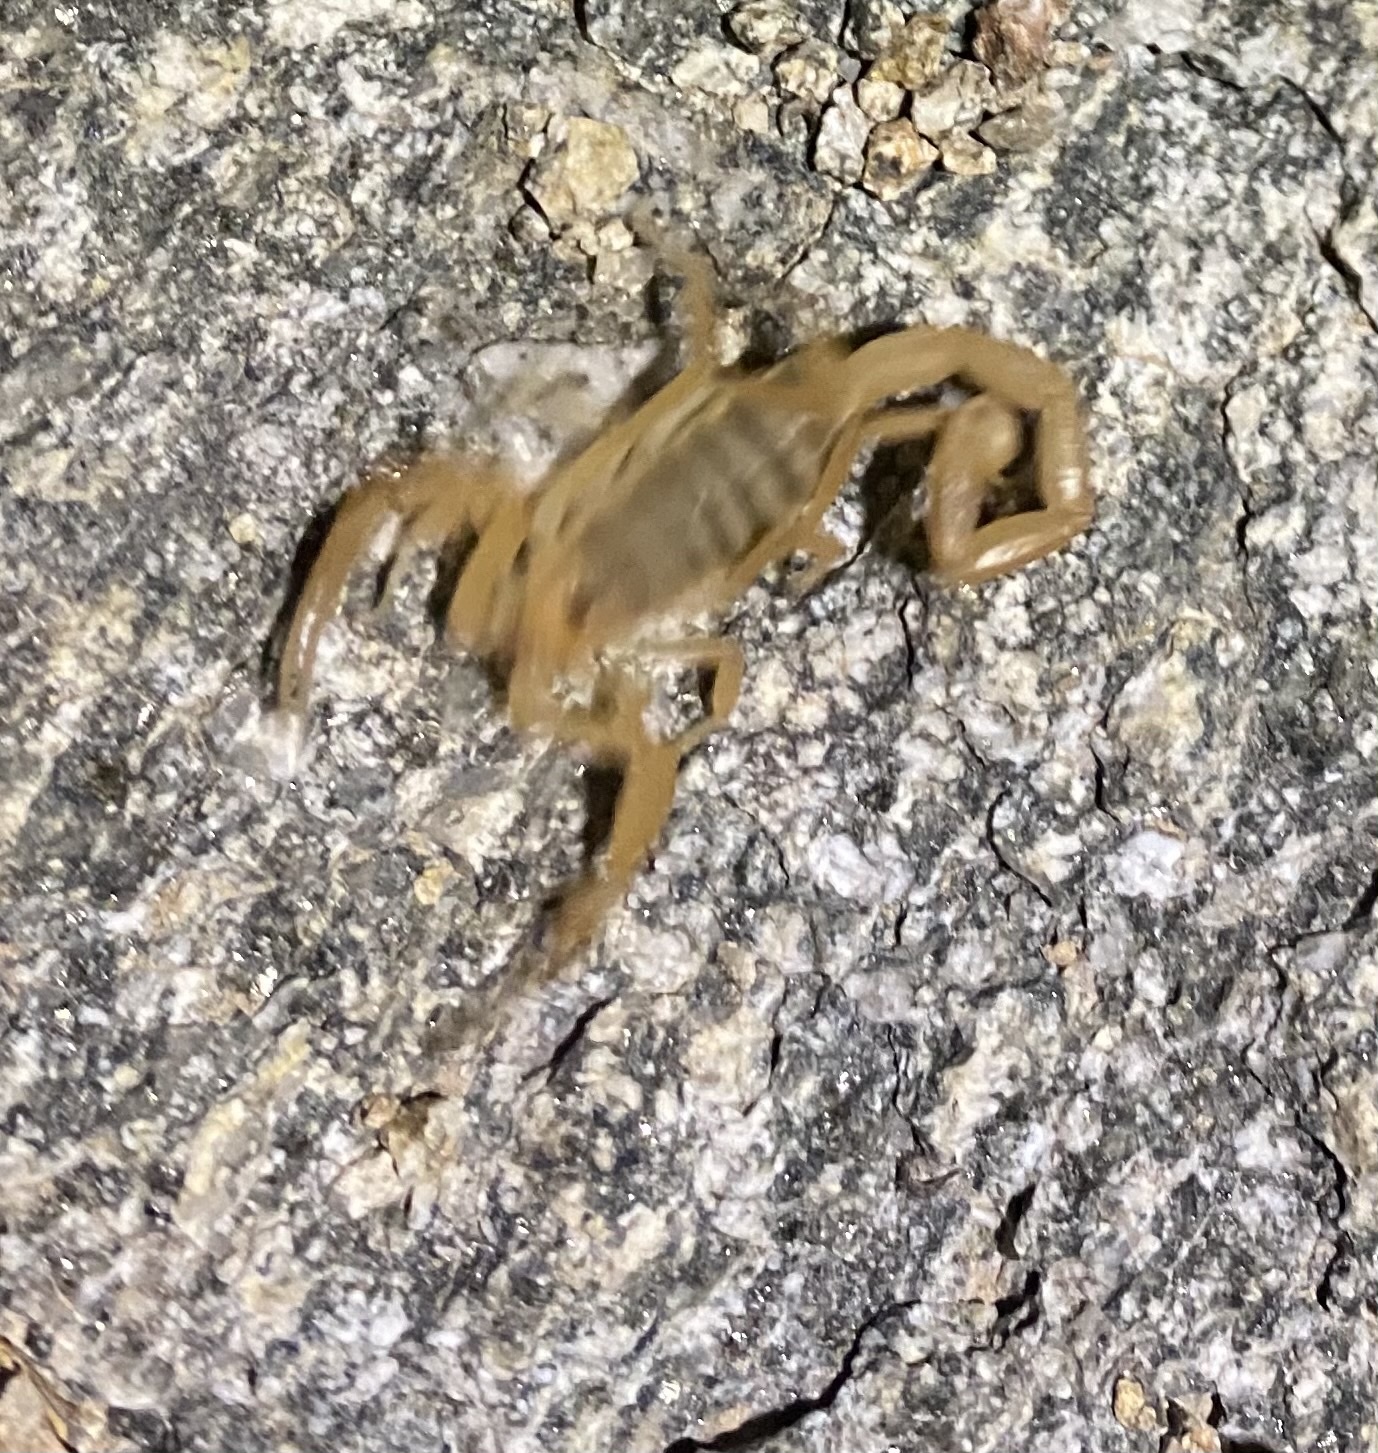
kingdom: Animalia
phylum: Arthropoda
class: Arachnida
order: Scorpiones
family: Buthidae
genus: Centruroides
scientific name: Centruroides sculpturatus
